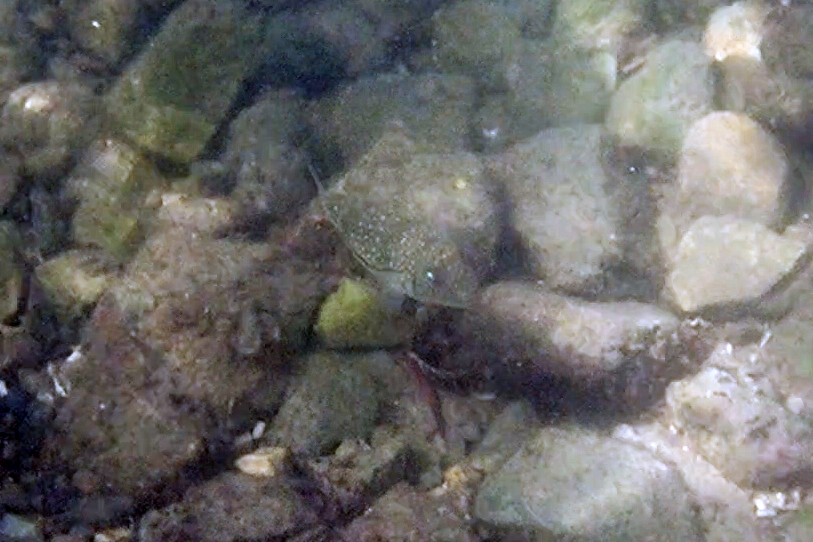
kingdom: Animalia
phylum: Chordata
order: Tetraodontiformes
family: Tetraodontidae
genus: Torquigener
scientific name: Torquigener pleurogramma
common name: Banded toadfish
